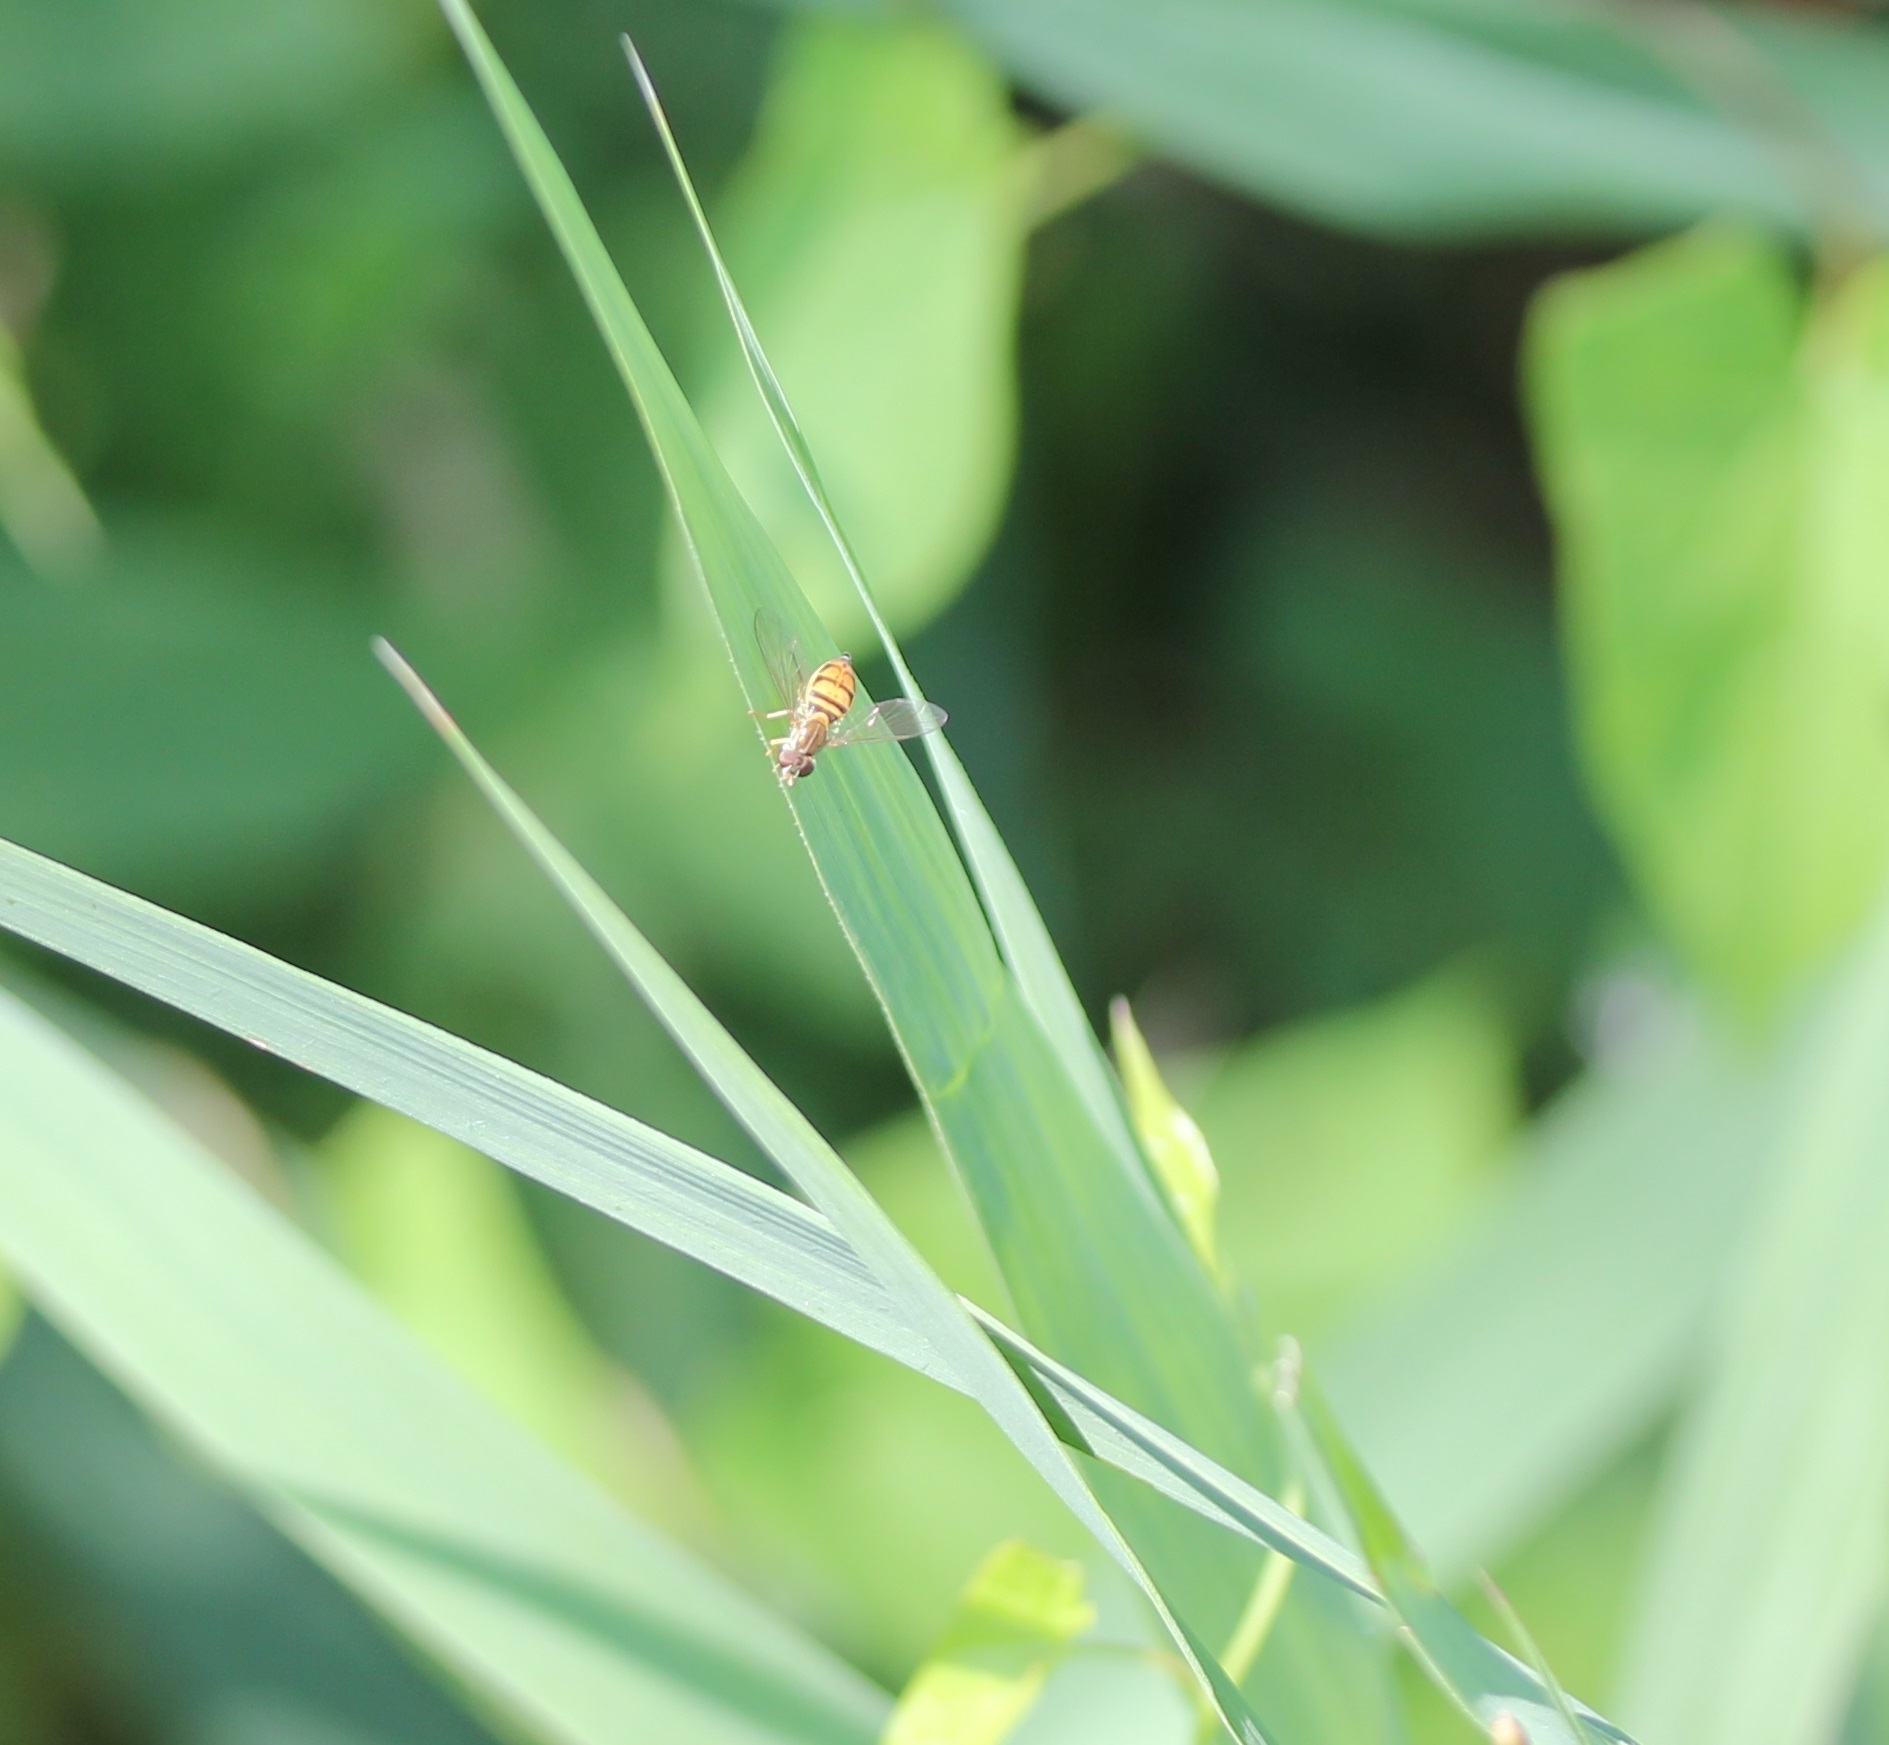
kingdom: Animalia
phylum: Arthropoda
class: Insecta
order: Diptera
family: Syrphidae
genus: Toxomerus
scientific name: Toxomerus marginatus
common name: Syrphid fly
